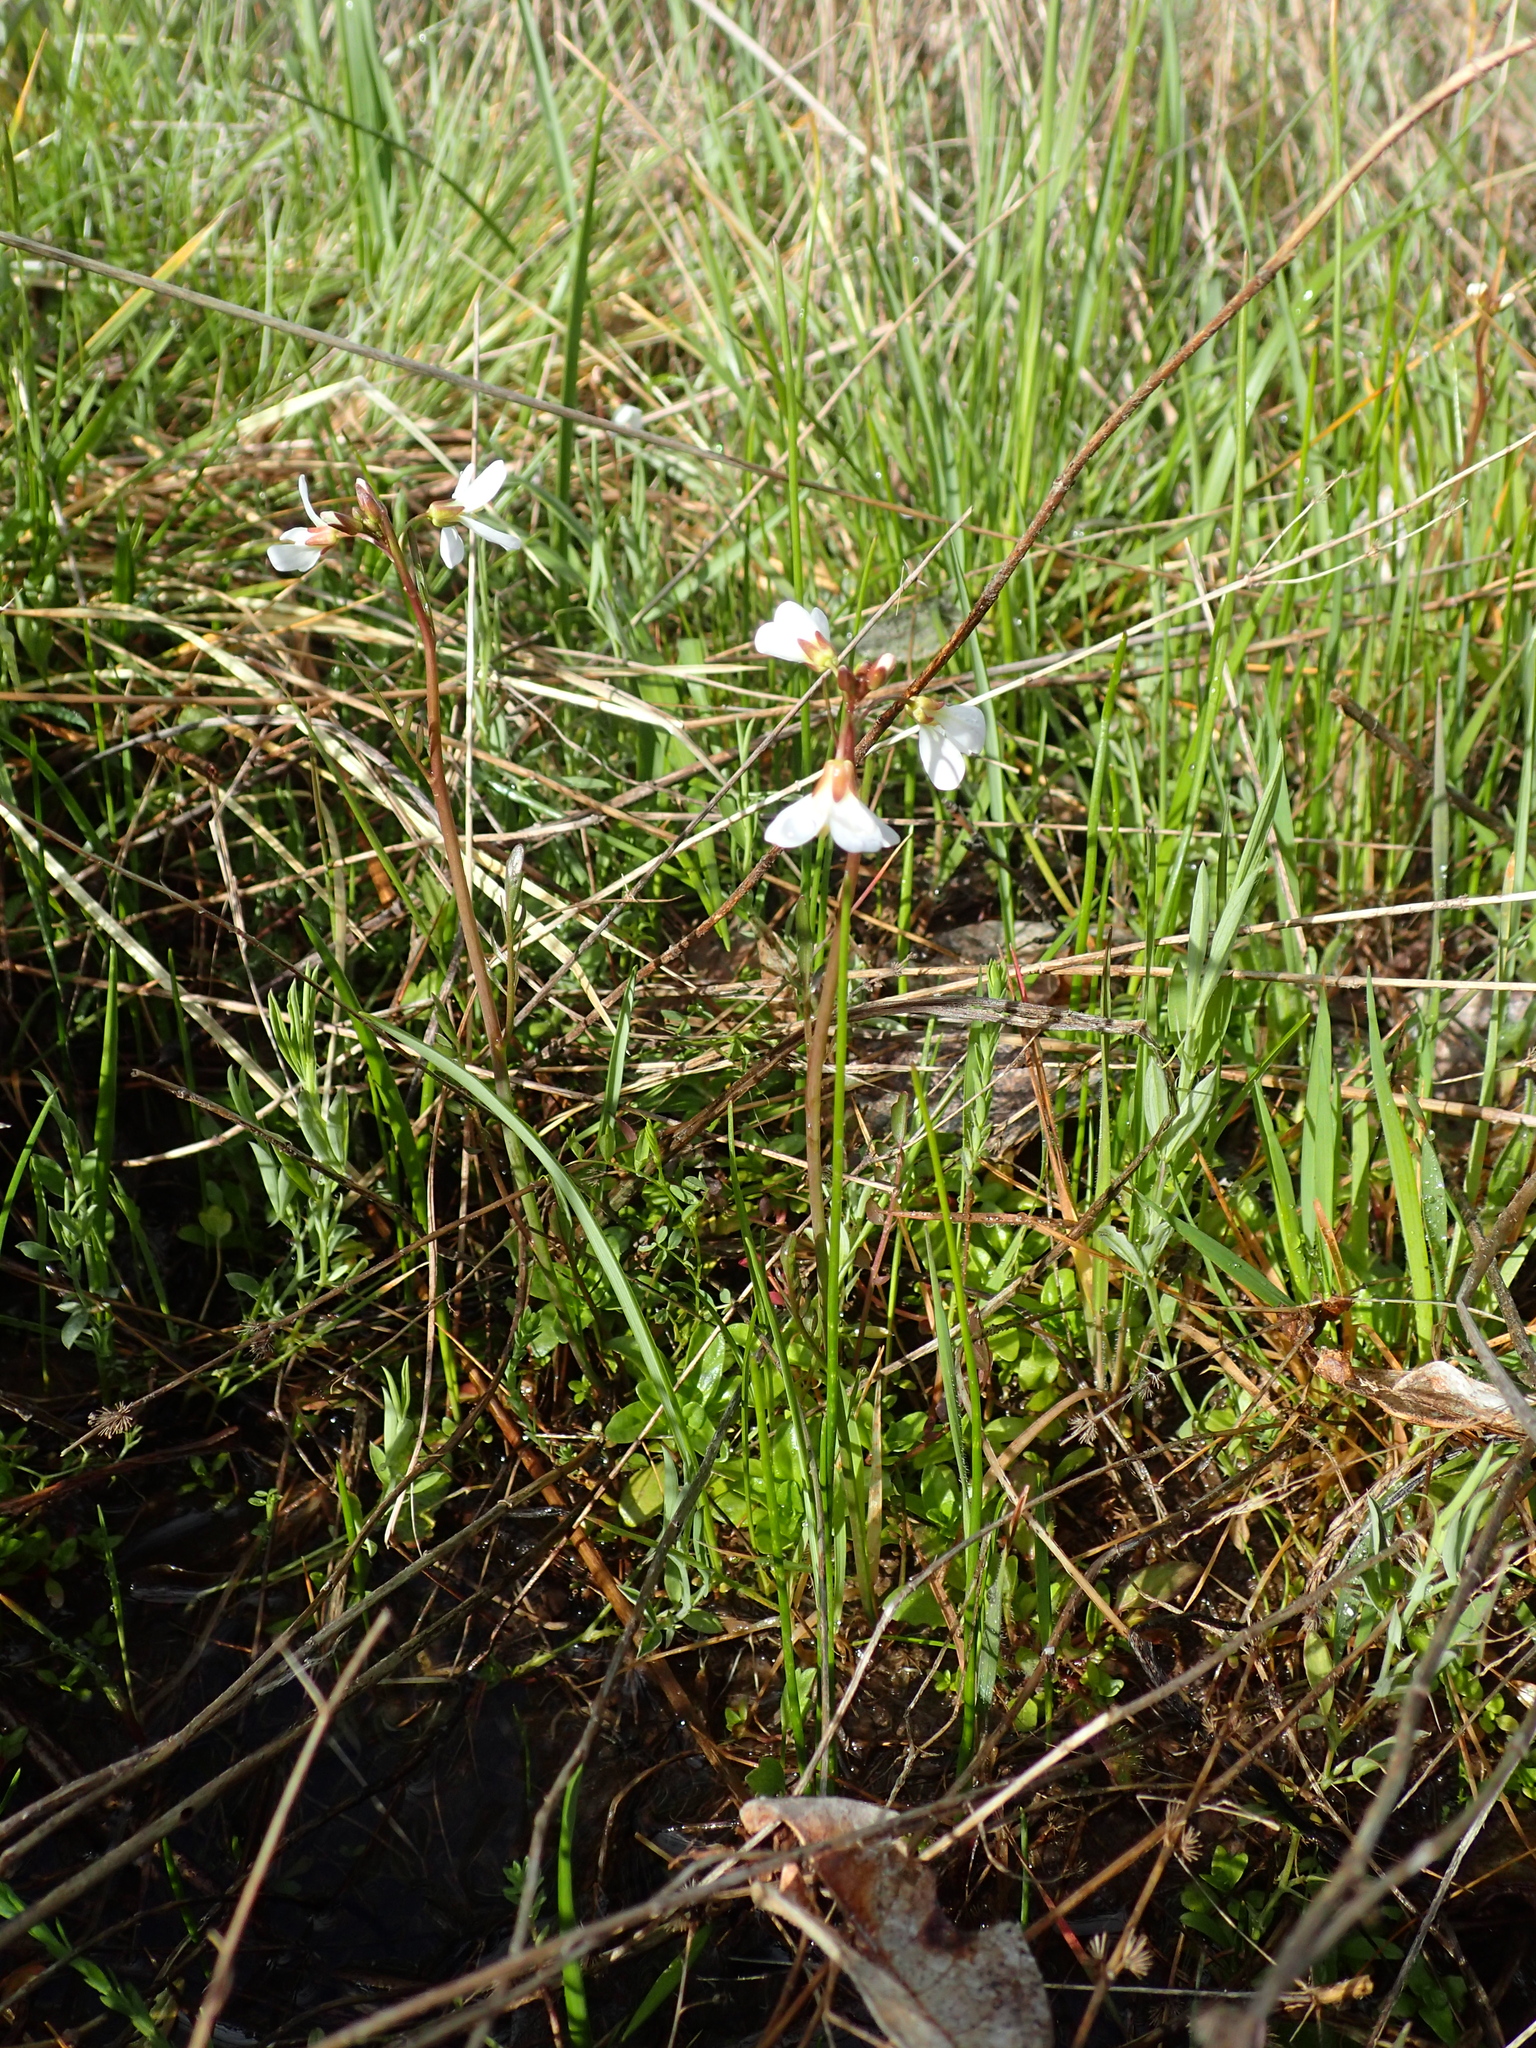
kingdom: Plantae
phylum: Tracheophyta
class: Magnoliopsida
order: Brassicales
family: Brassicaceae
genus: Cardamine
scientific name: Cardamine penduliflora
